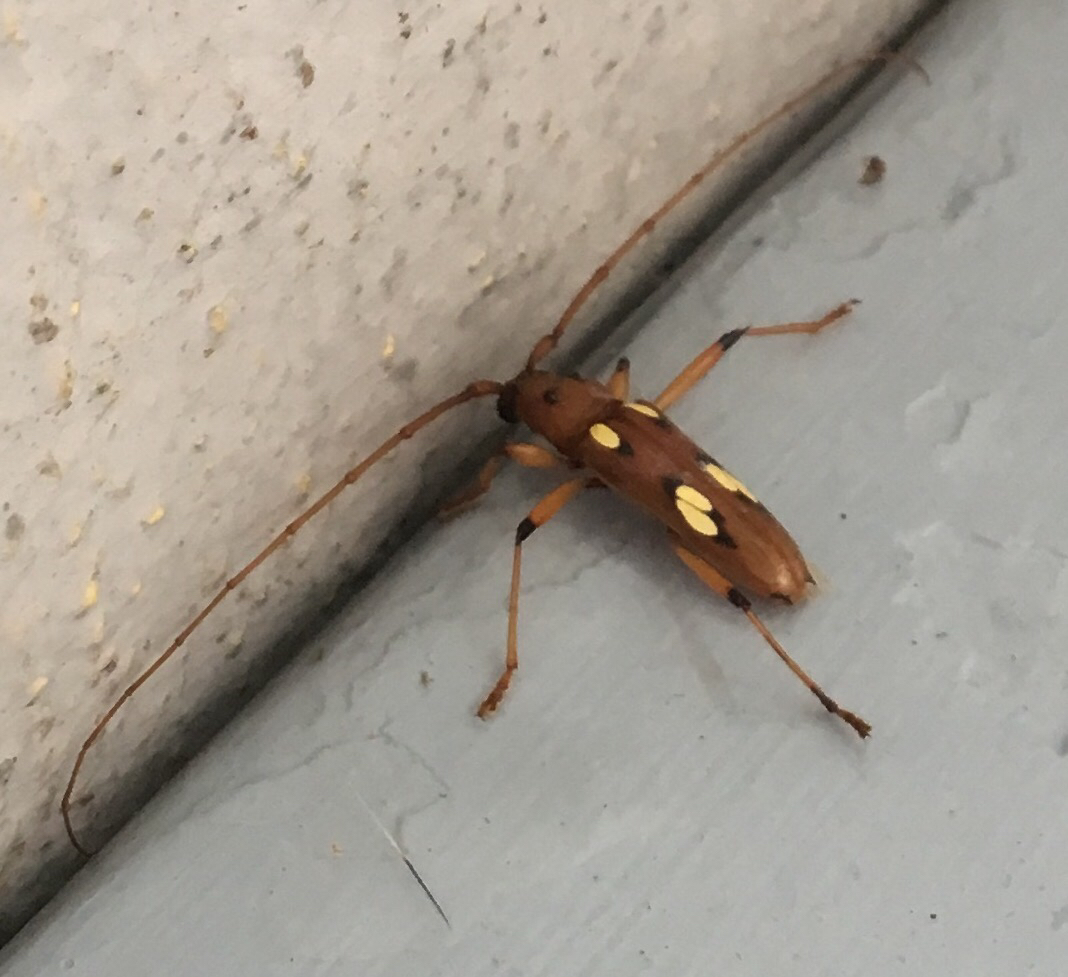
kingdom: Animalia
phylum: Arthropoda
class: Insecta
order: Coleoptera
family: Cerambycidae
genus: Eburodacrys
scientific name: Eburodacrys sulphureosignata
